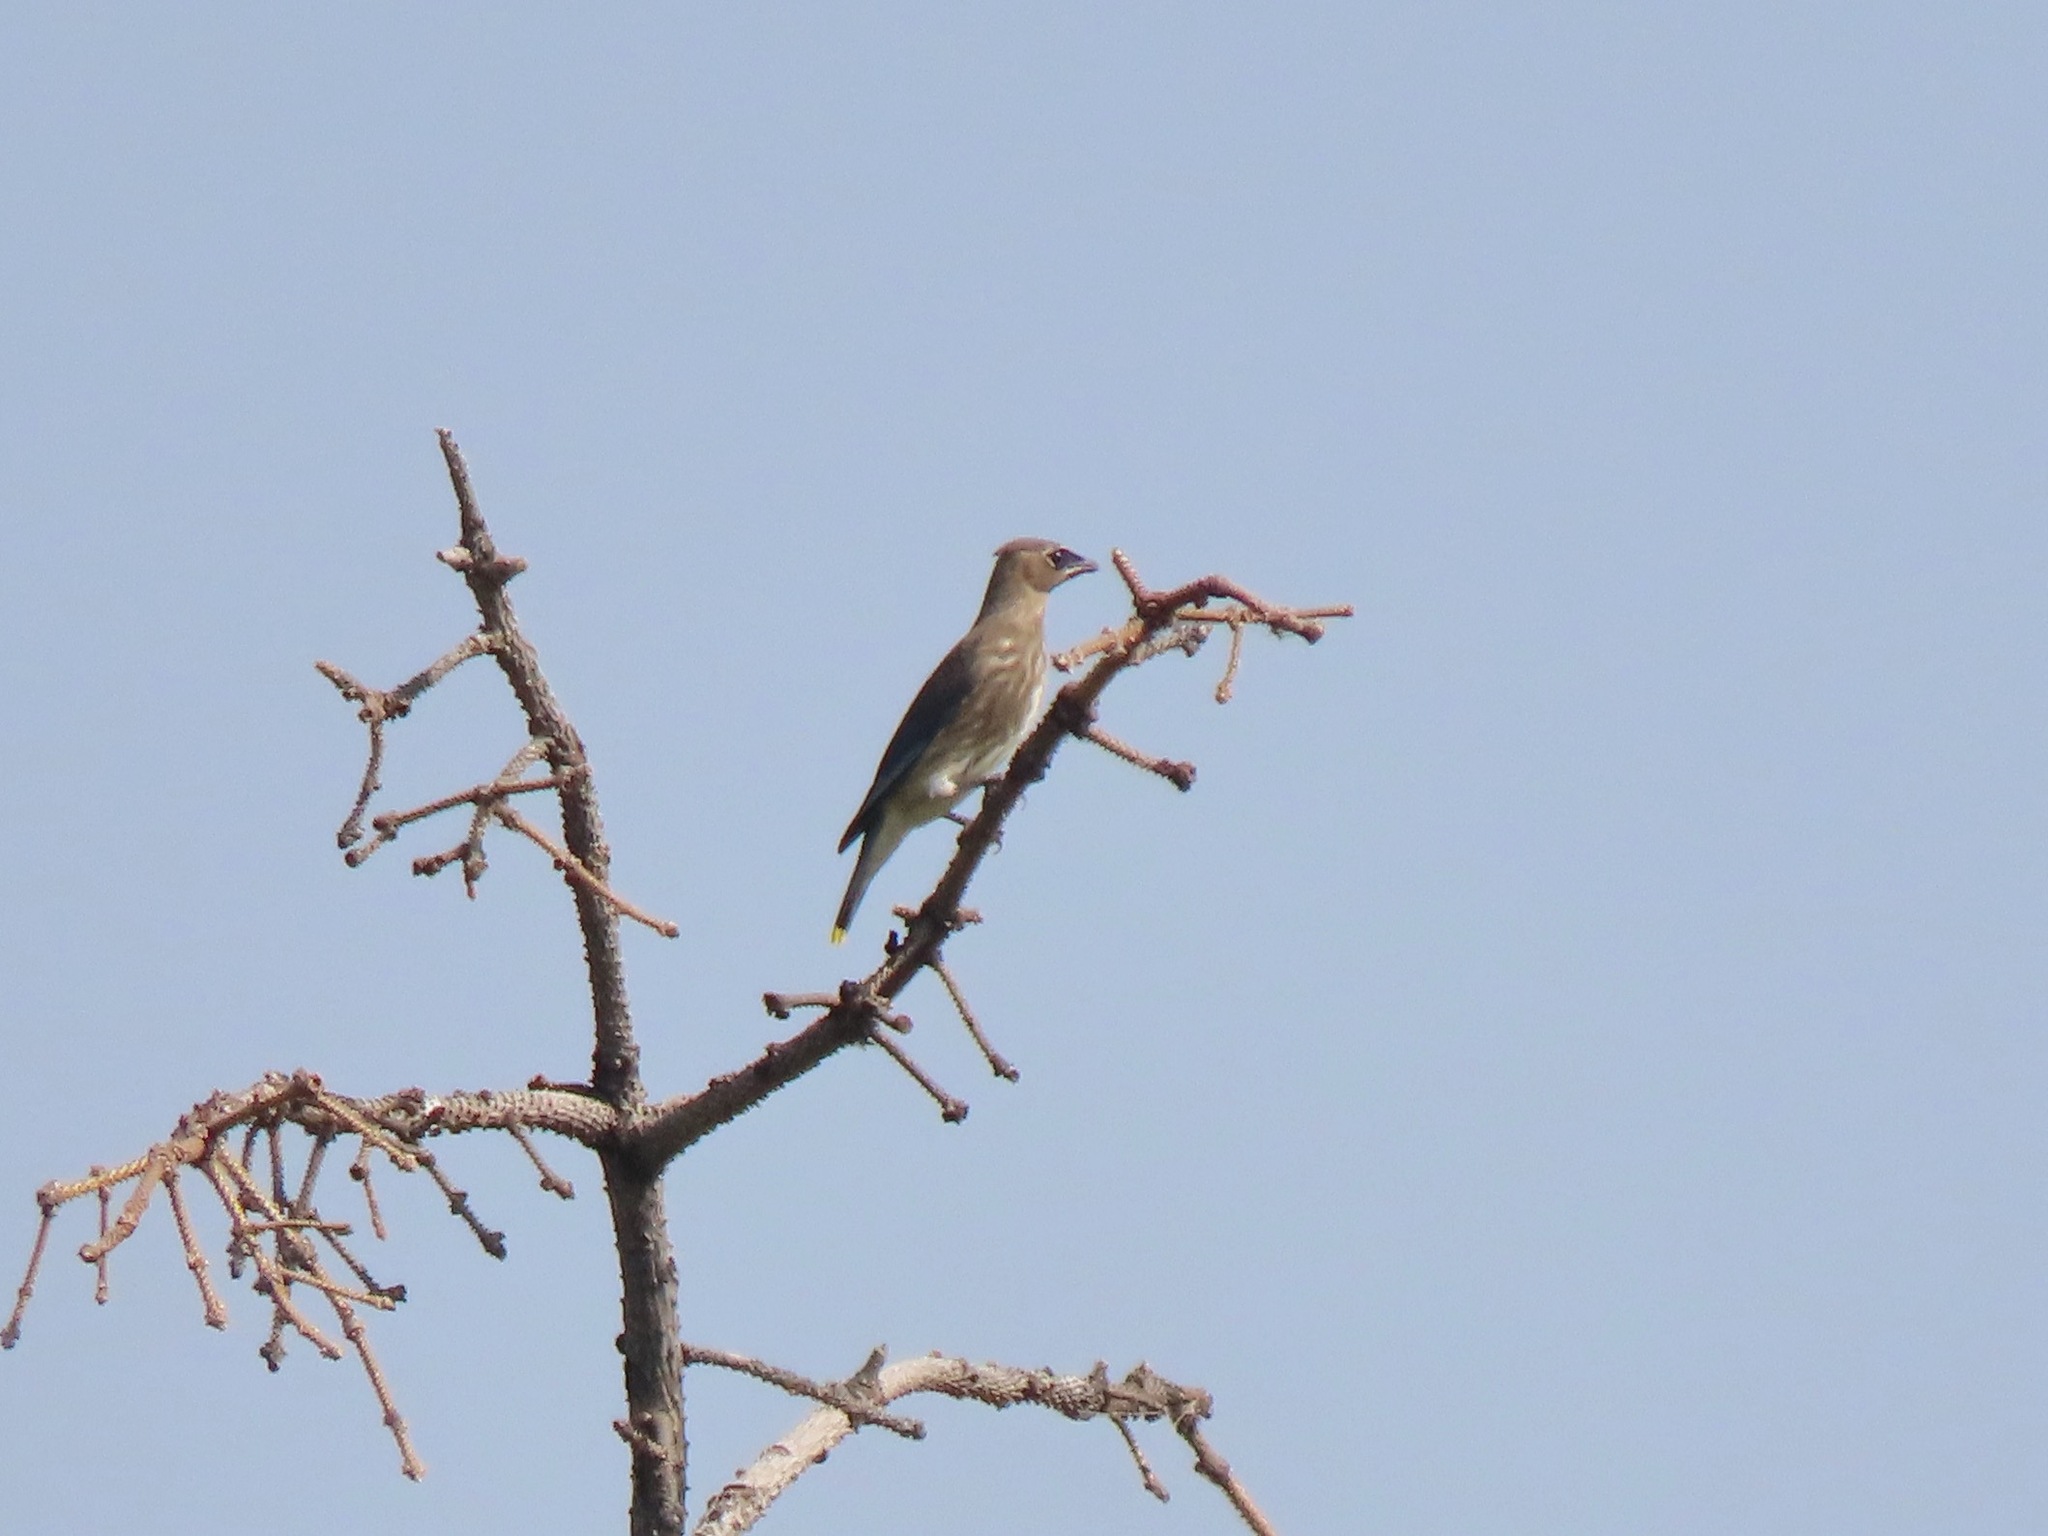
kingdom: Animalia
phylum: Chordata
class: Aves
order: Passeriformes
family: Bombycillidae
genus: Bombycilla
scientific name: Bombycilla cedrorum
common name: Cedar waxwing
